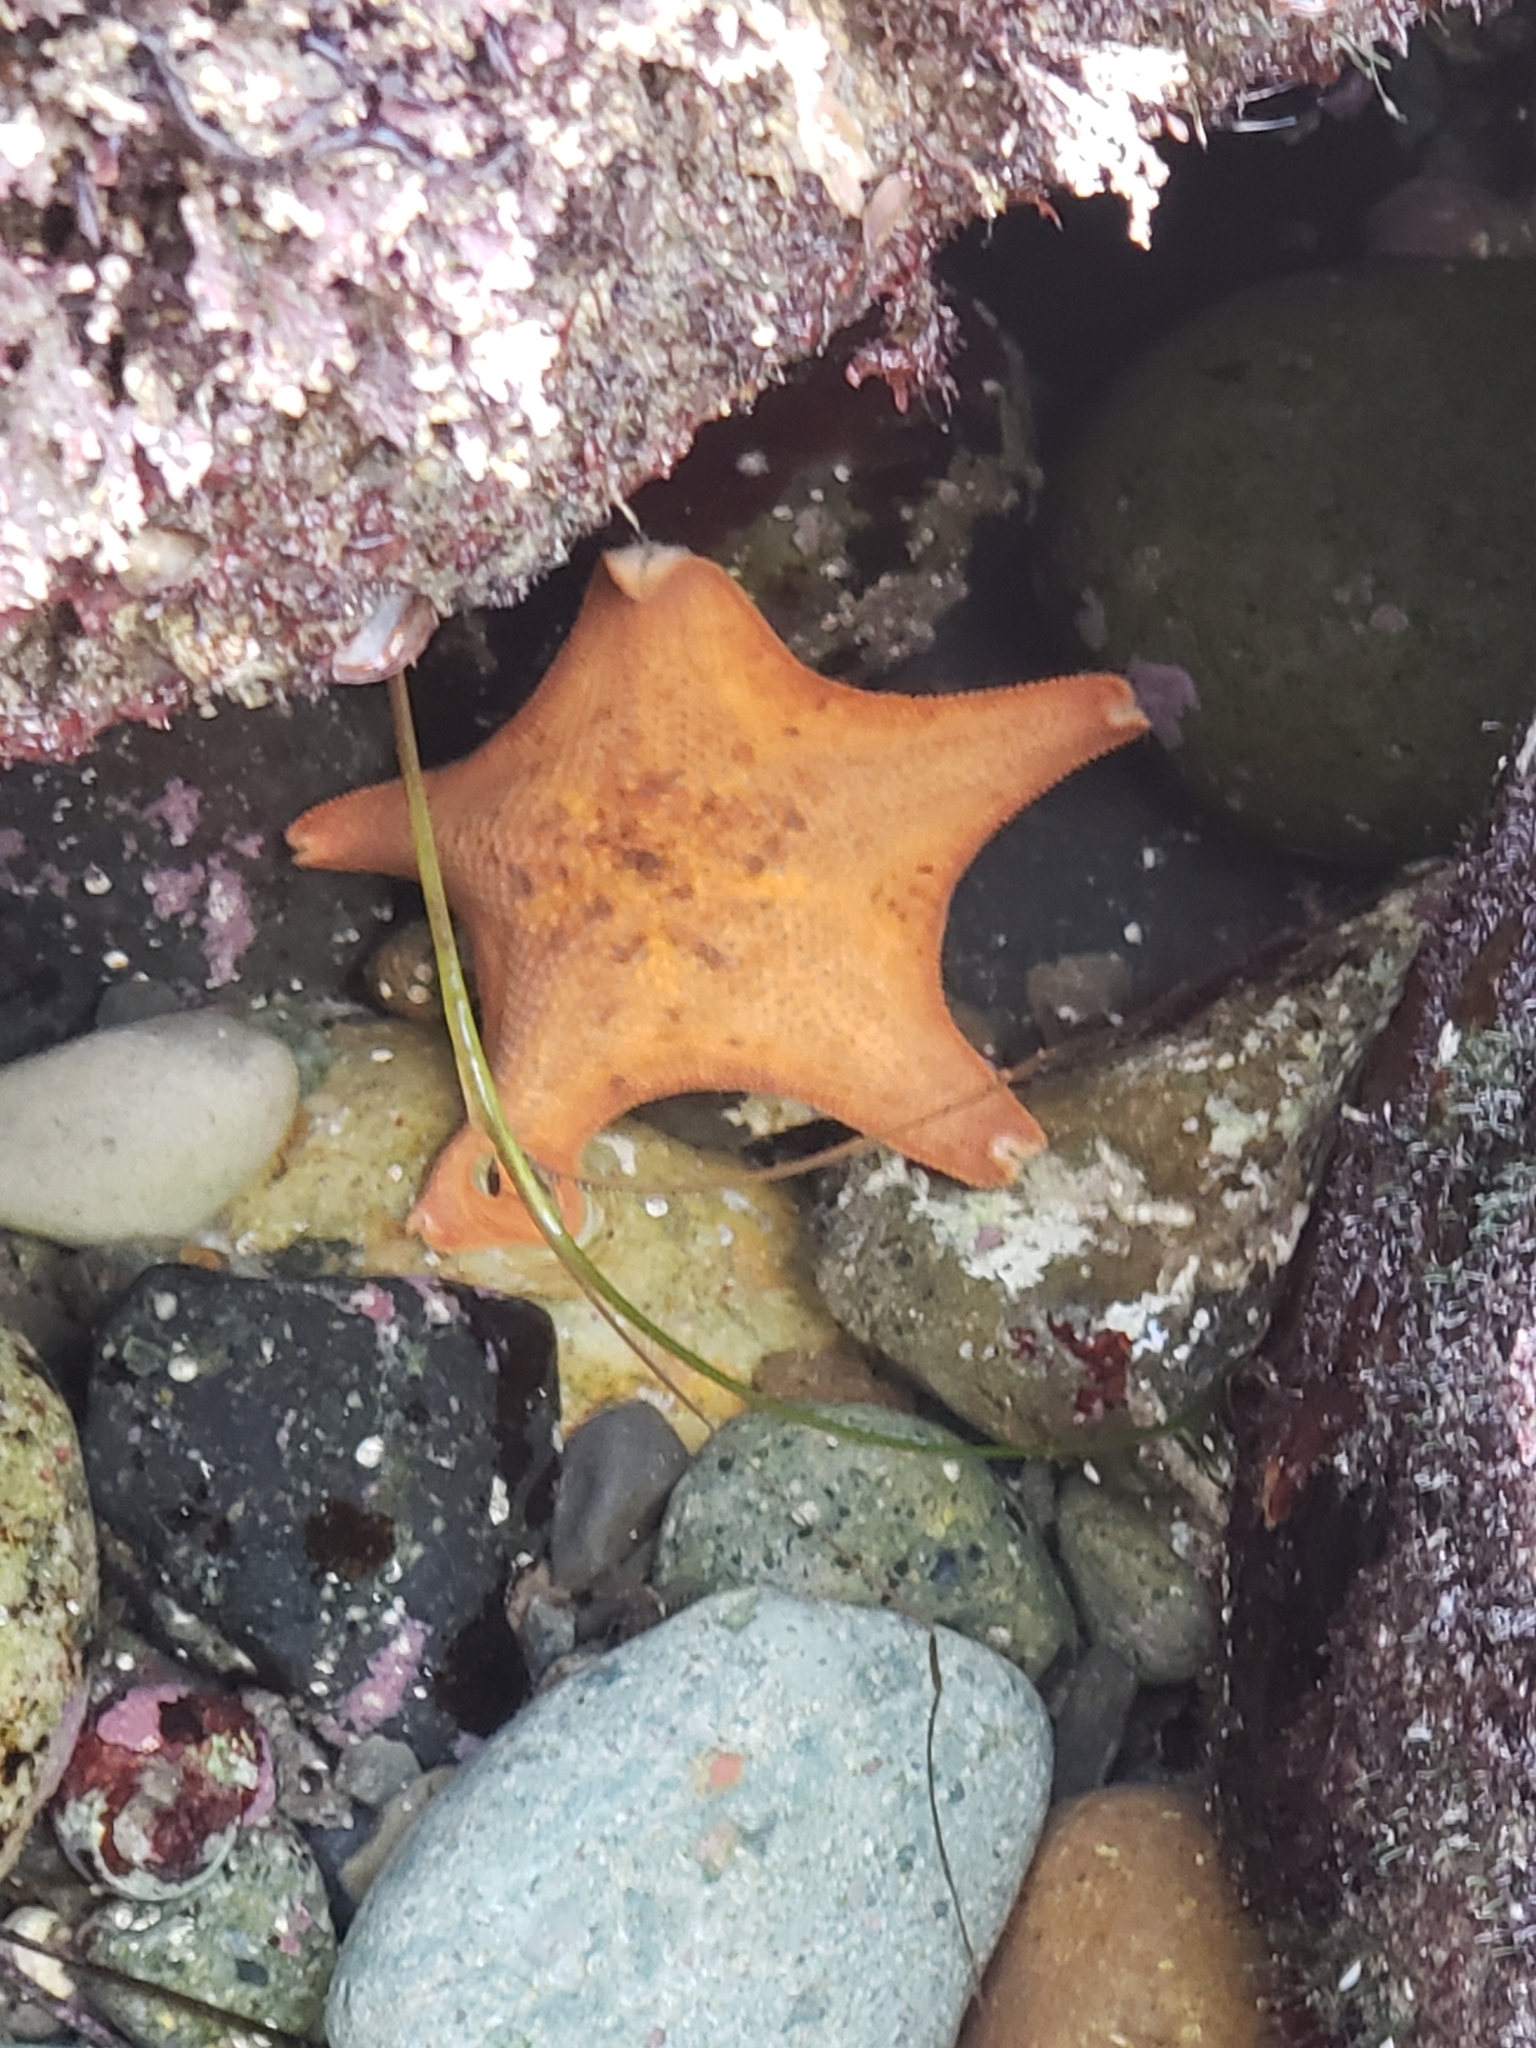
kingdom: Animalia
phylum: Echinodermata
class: Asteroidea
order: Valvatida
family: Asterinidae
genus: Patiria
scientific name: Patiria miniata
